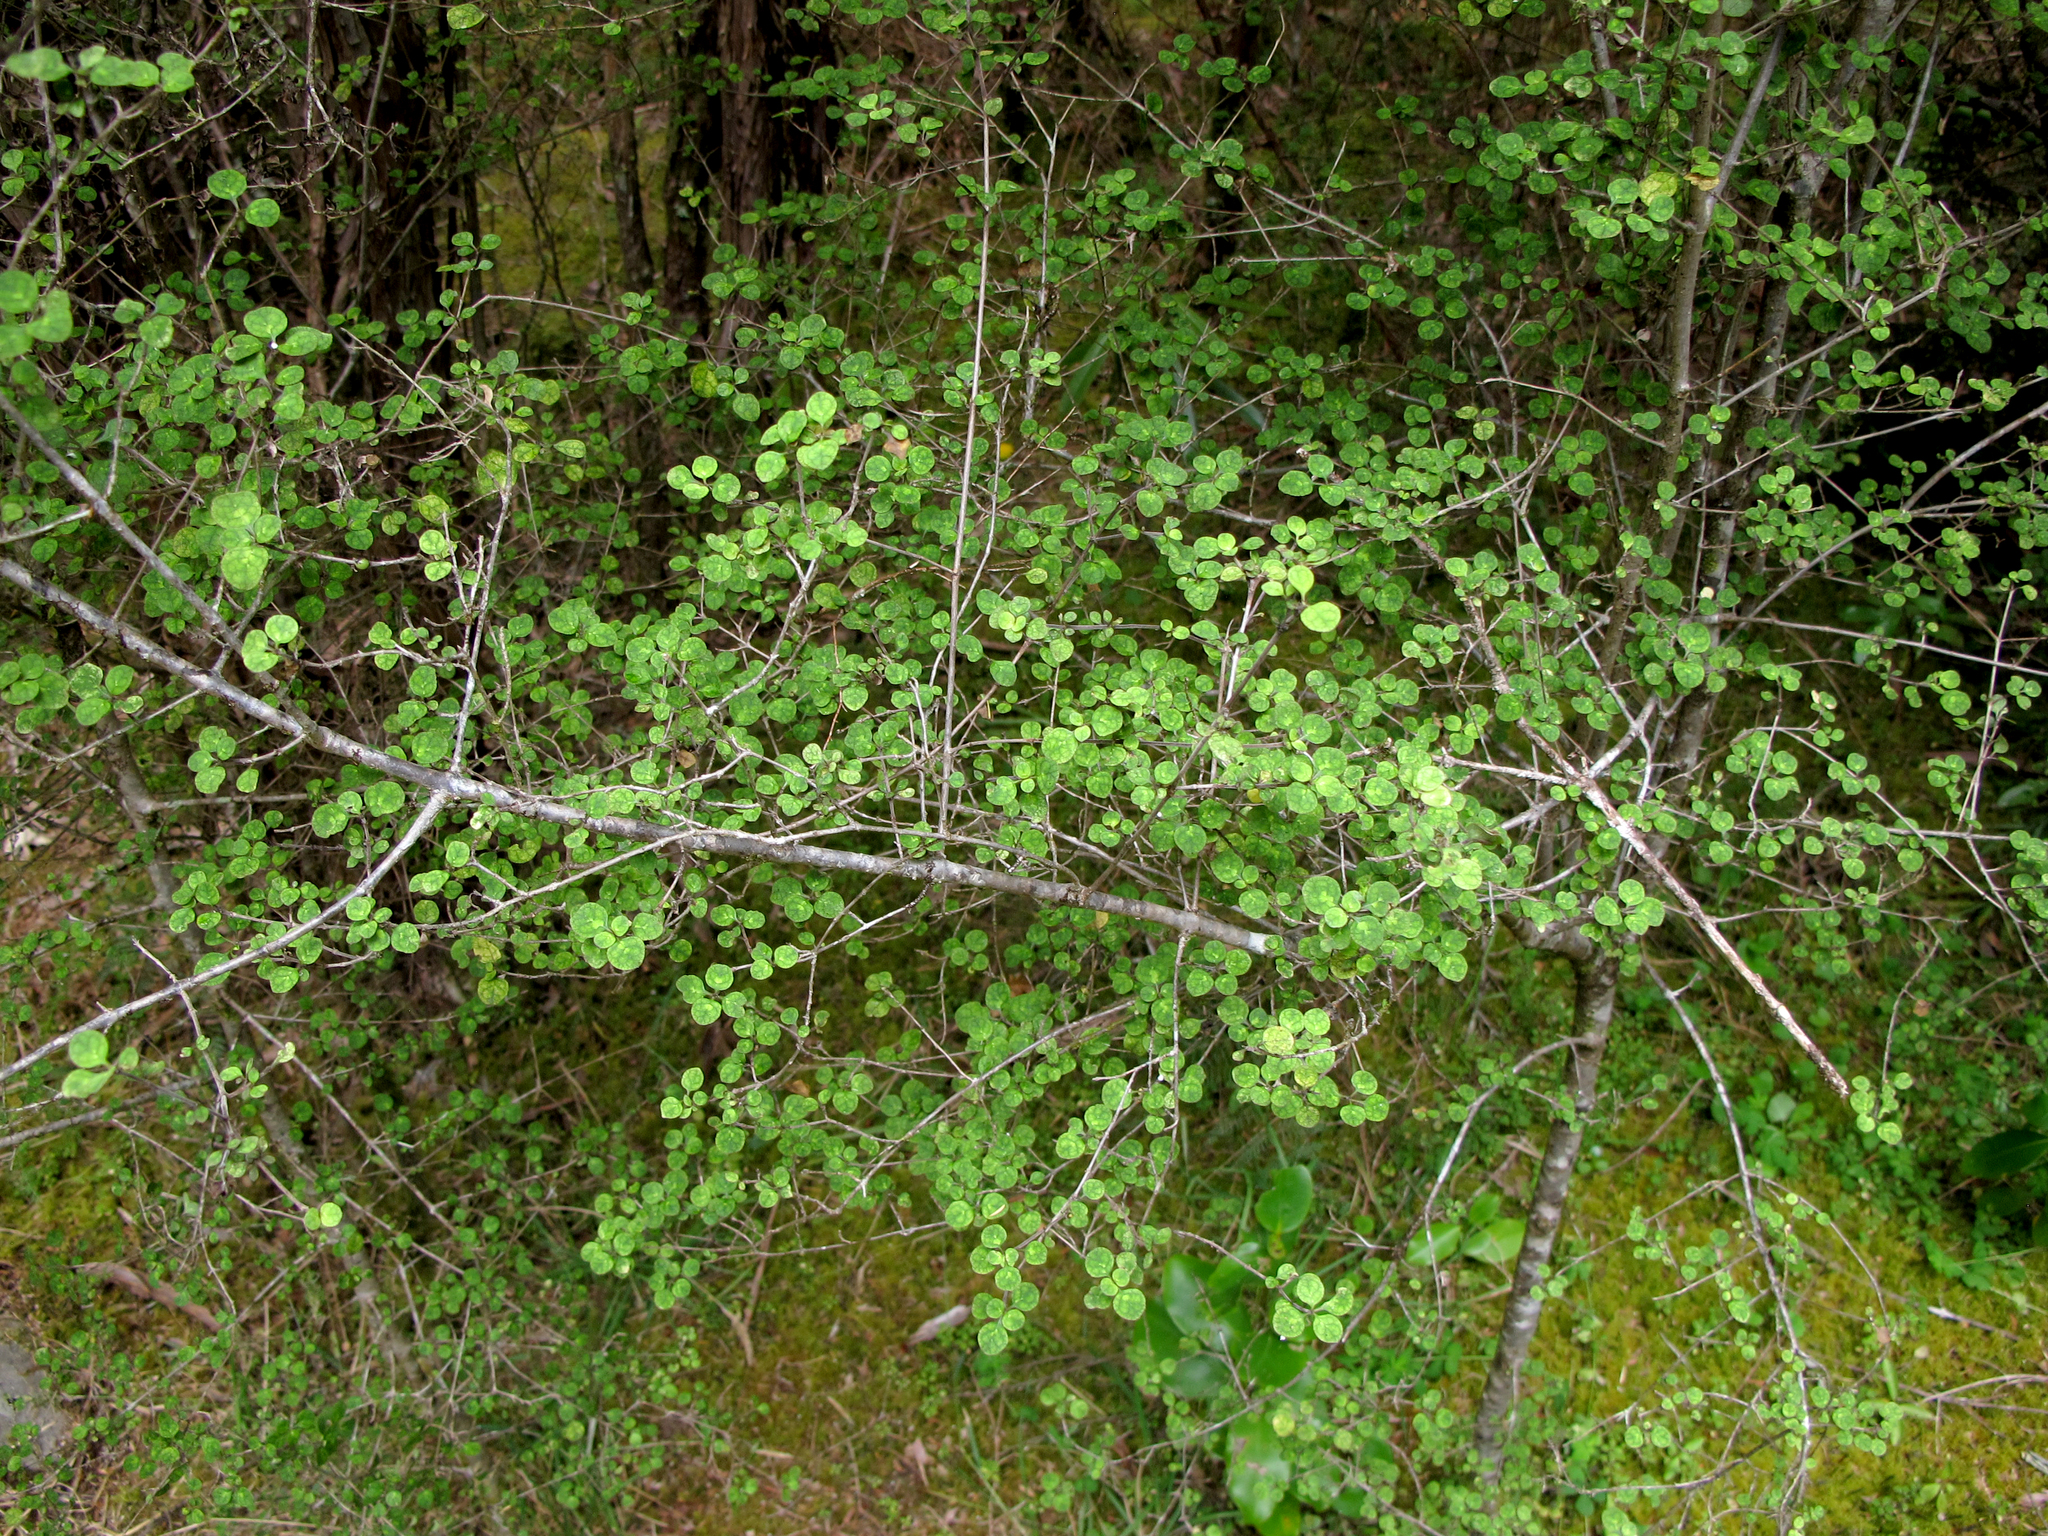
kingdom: Plantae
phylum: Tracheophyta
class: Magnoliopsida
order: Gentianales
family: Rubiaceae
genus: Coprosma
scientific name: Coprosma tenuicaulis
